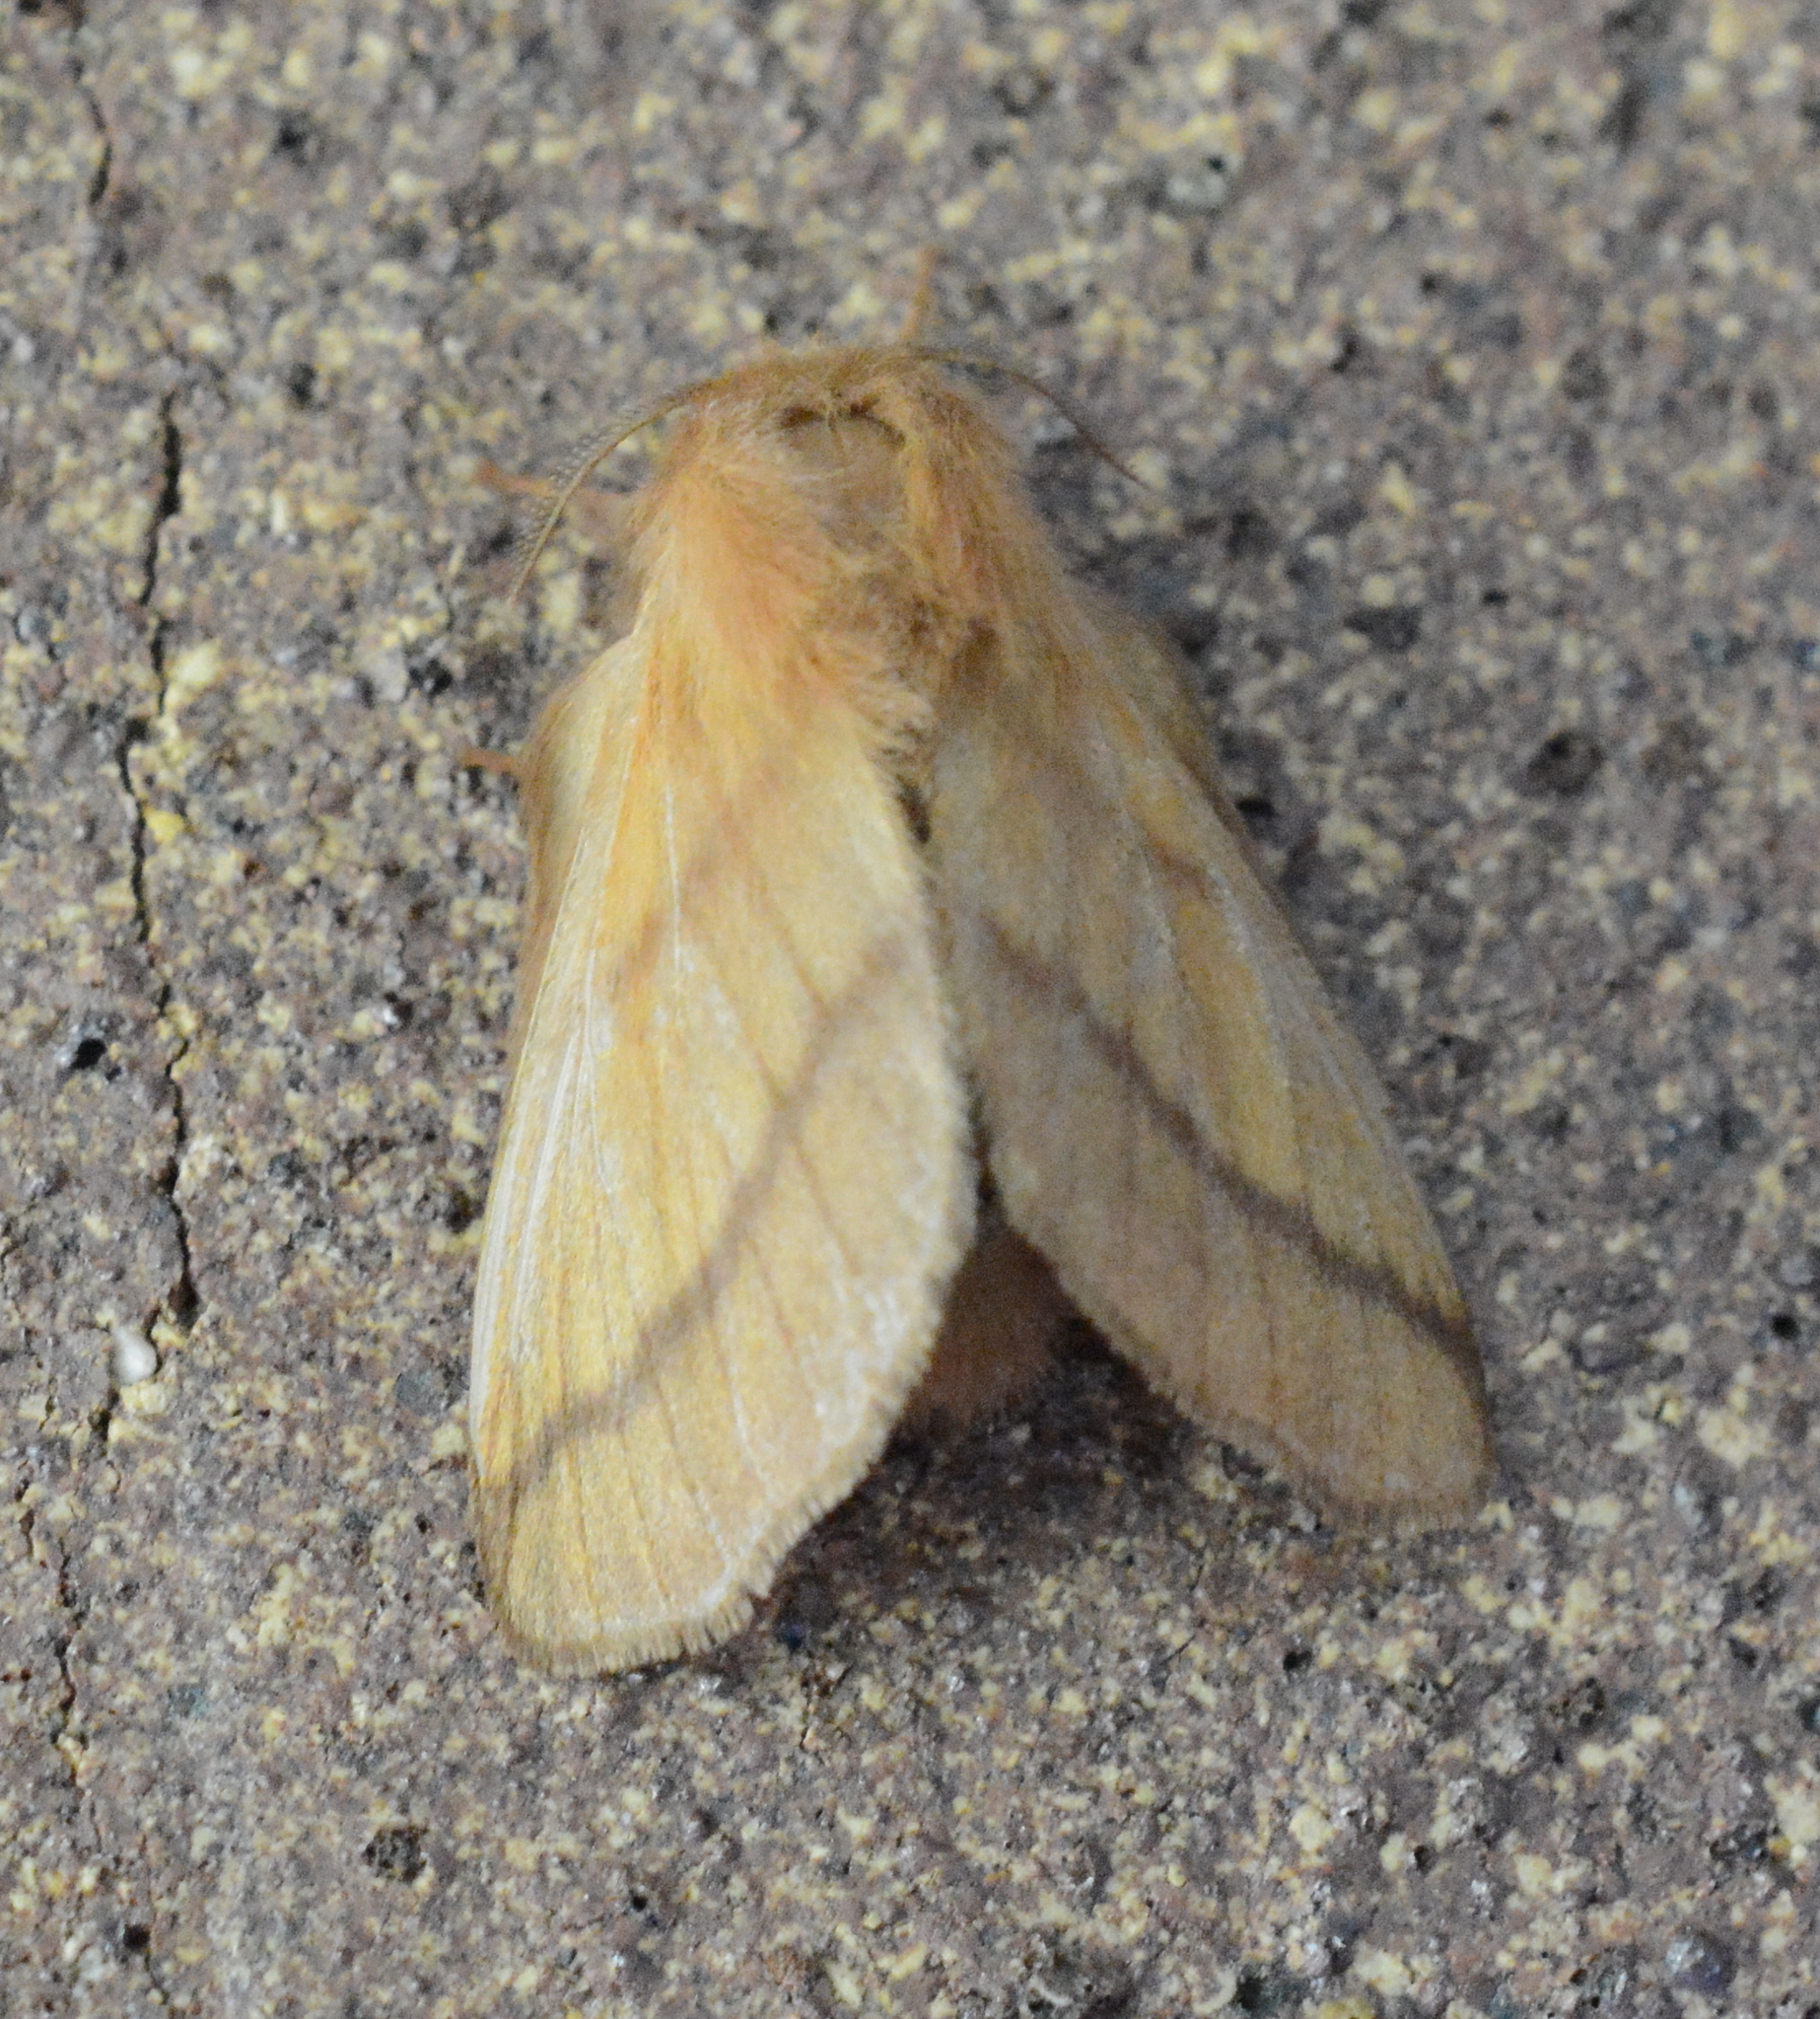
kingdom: Animalia
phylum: Arthropoda
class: Insecta
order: Lepidoptera
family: Lasiocampidae
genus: Malacosoma
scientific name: Malacosoma disstria
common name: Forest tent caterpillar
